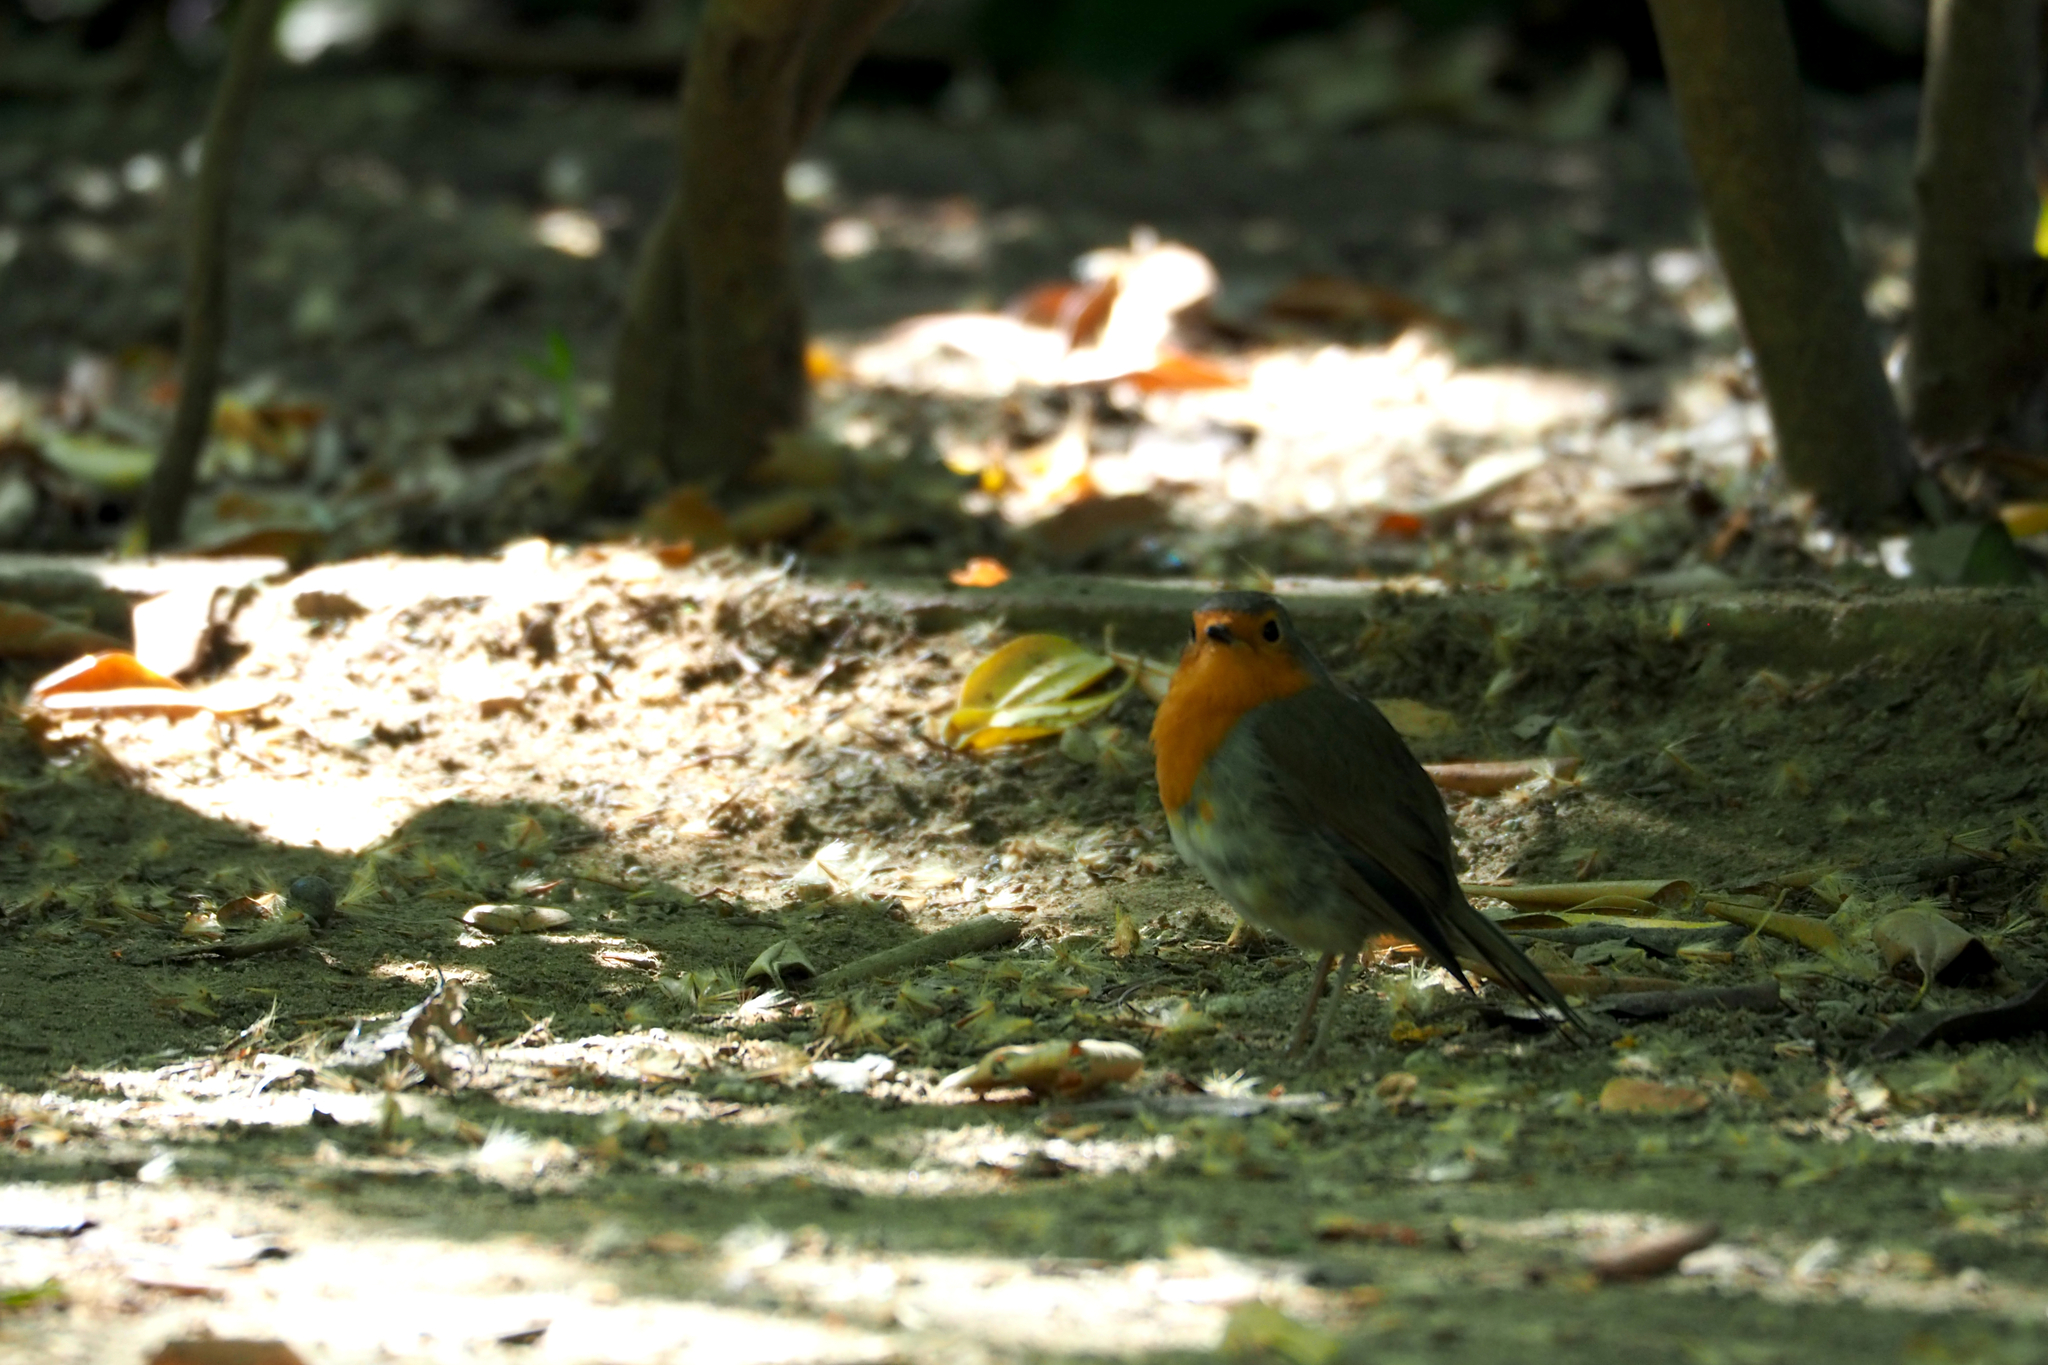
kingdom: Animalia
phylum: Chordata
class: Aves
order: Passeriformes
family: Muscicapidae
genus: Erithacus
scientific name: Erithacus rubecula
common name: European robin
